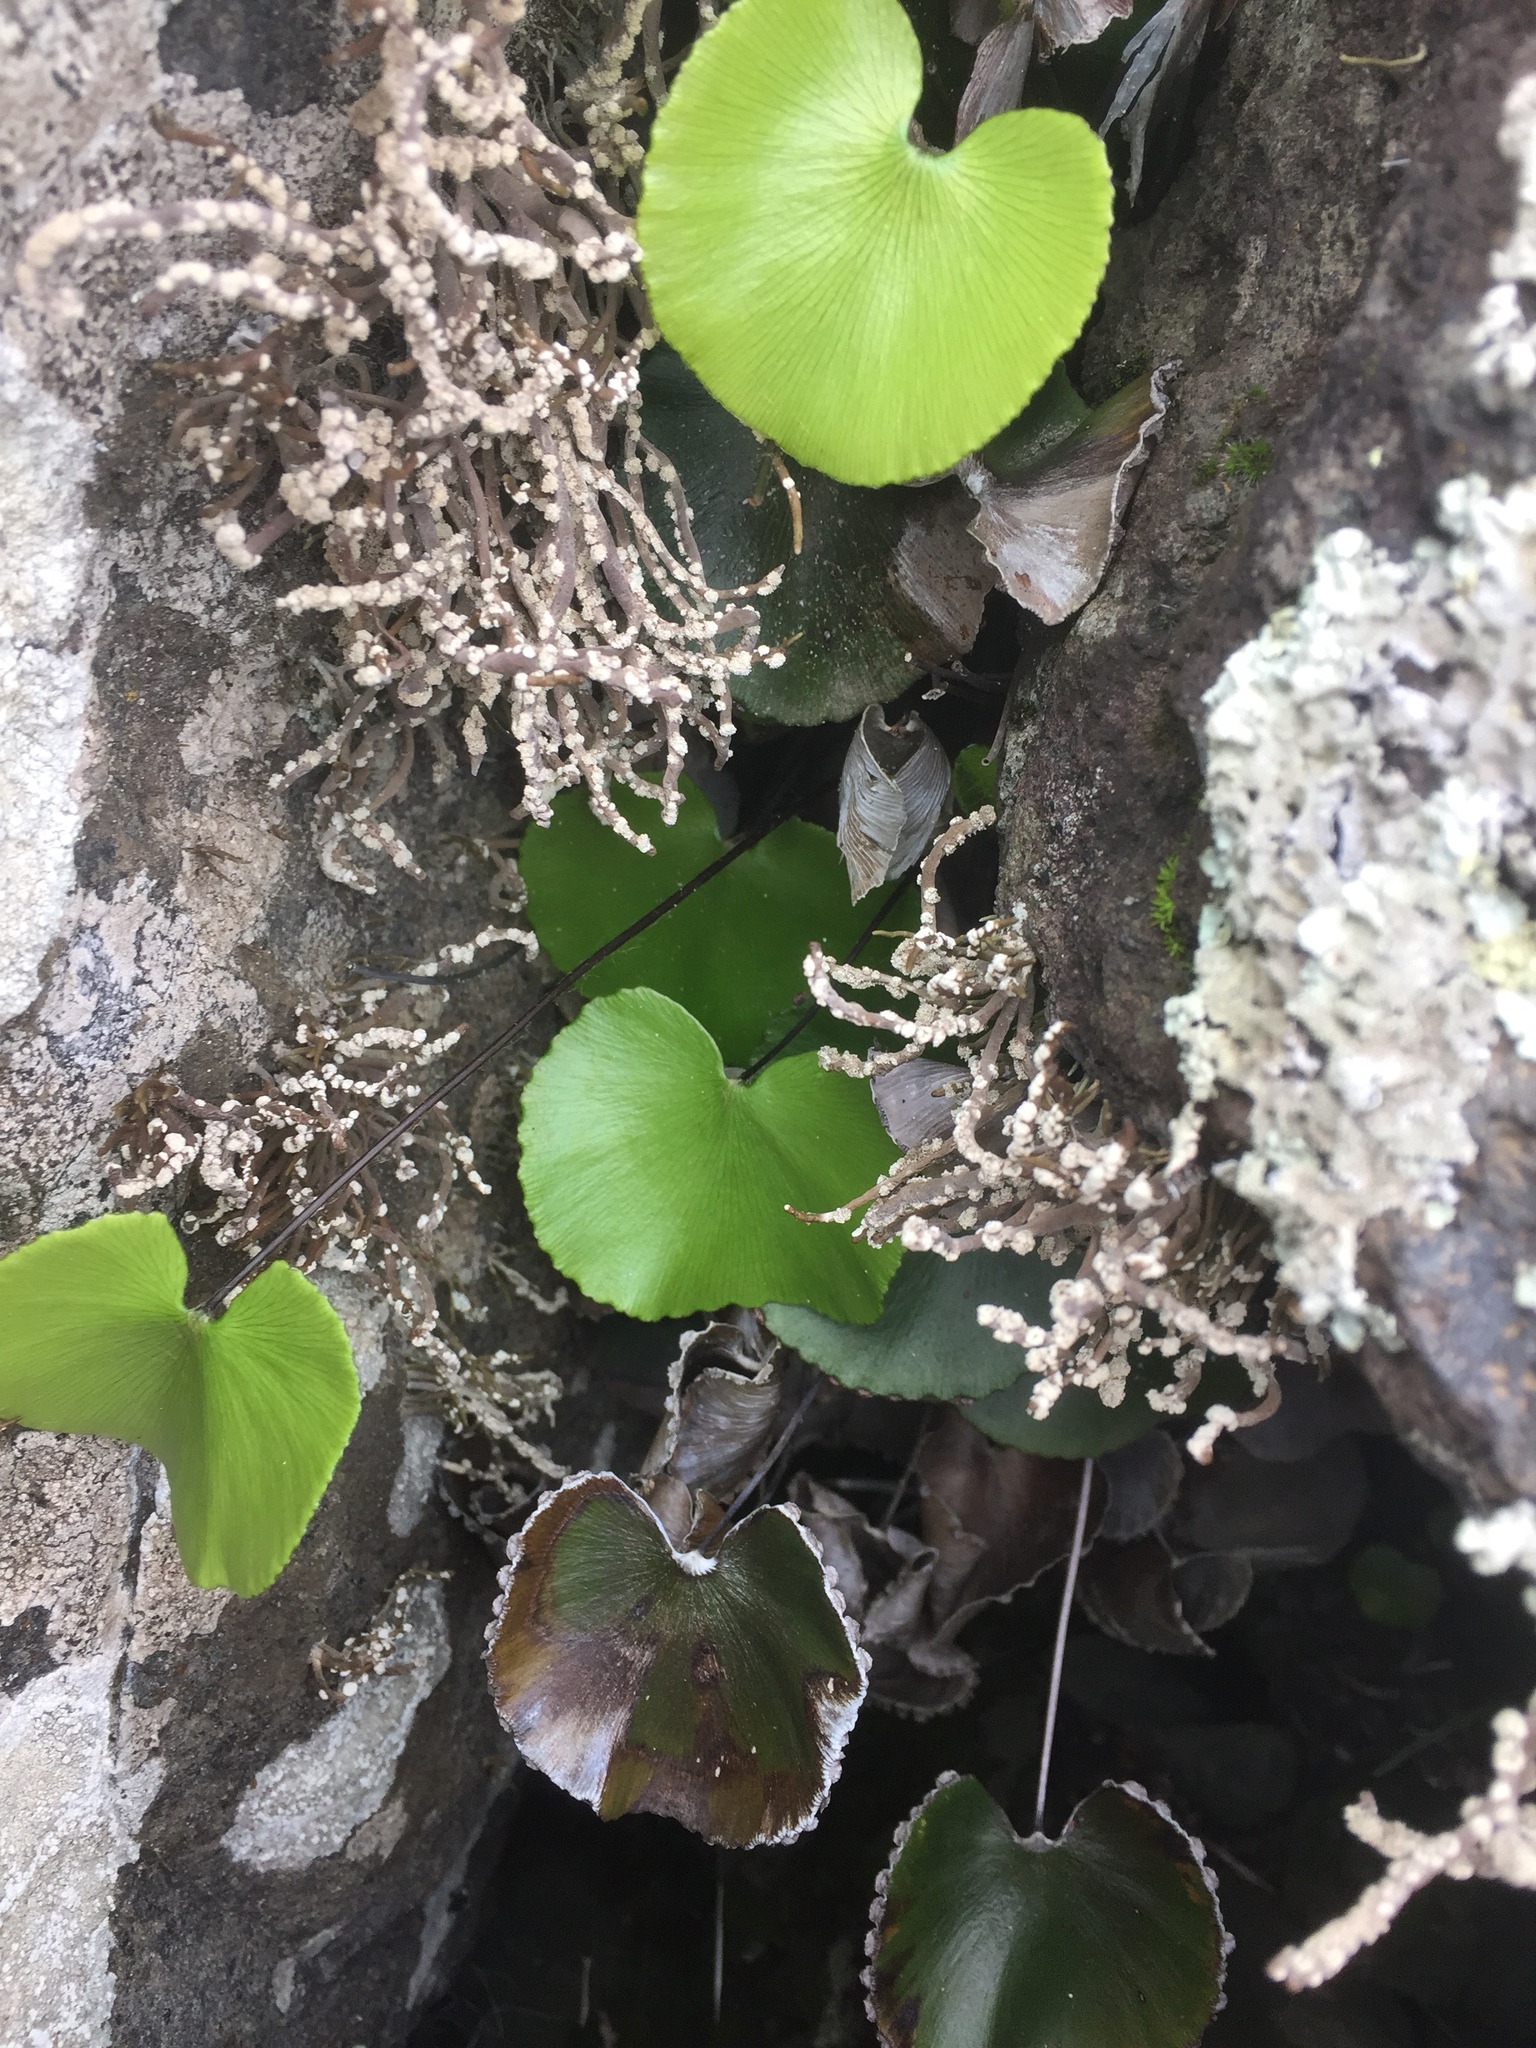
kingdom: Plantae
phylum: Tracheophyta
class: Polypodiopsida
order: Polypodiales
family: Pteridaceae
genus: Adiantum
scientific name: Adiantum reniforme
